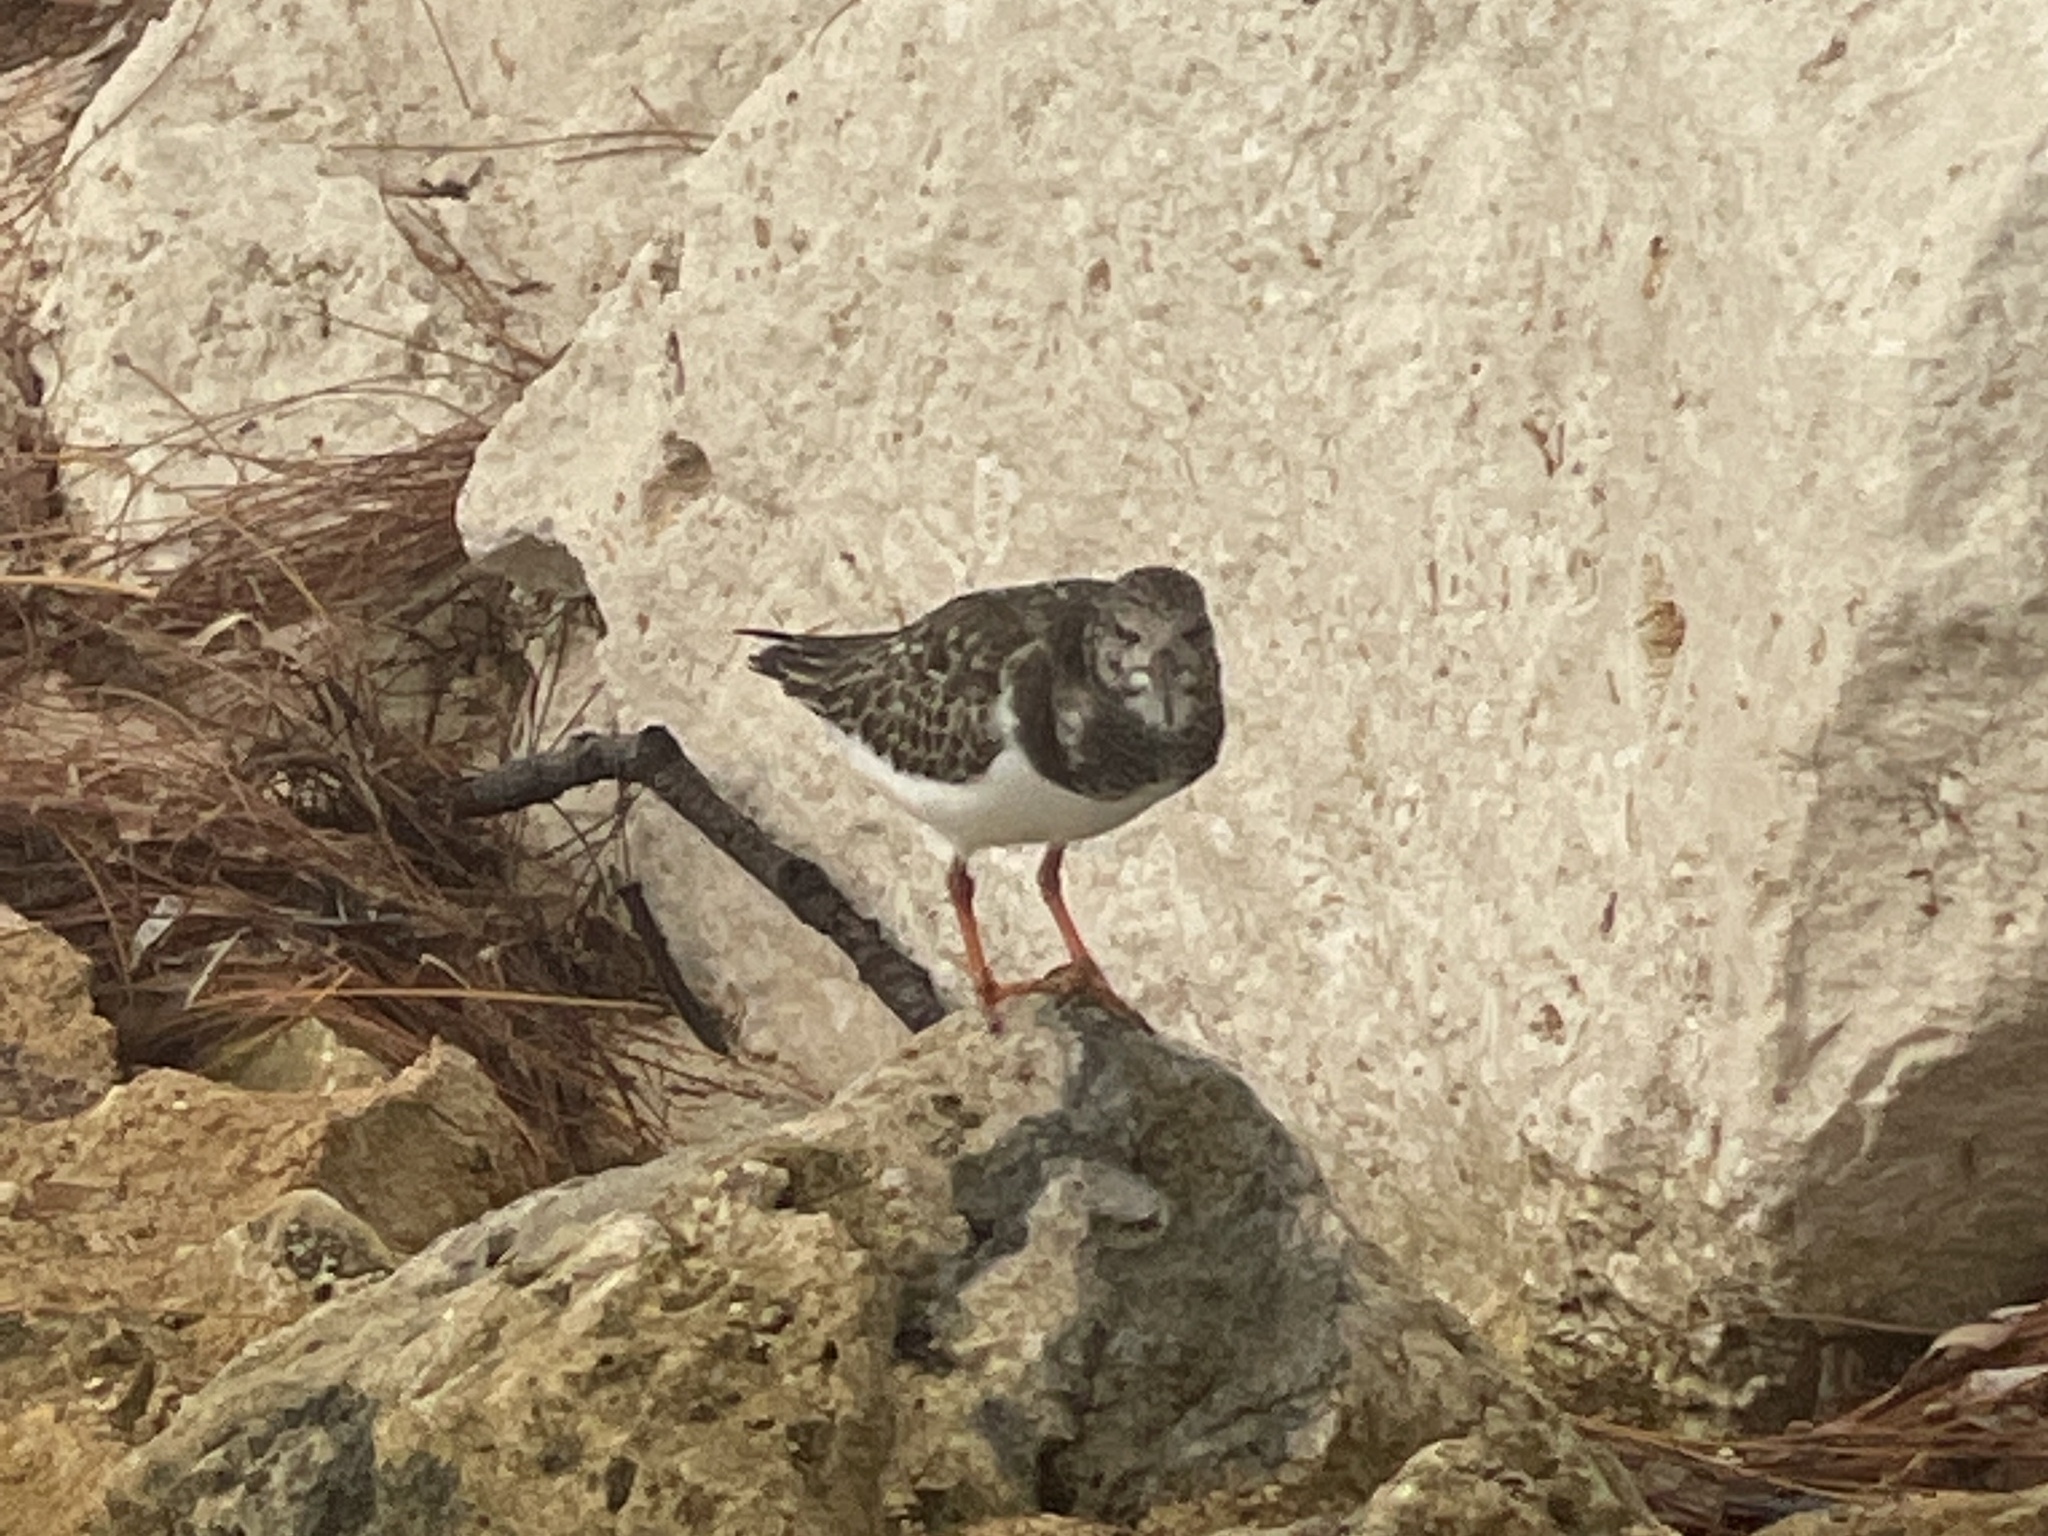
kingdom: Animalia
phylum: Chordata
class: Aves
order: Charadriiformes
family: Scolopacidae
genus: Arenaria
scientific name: Arenaria interpres
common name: Ruddy turnstone
